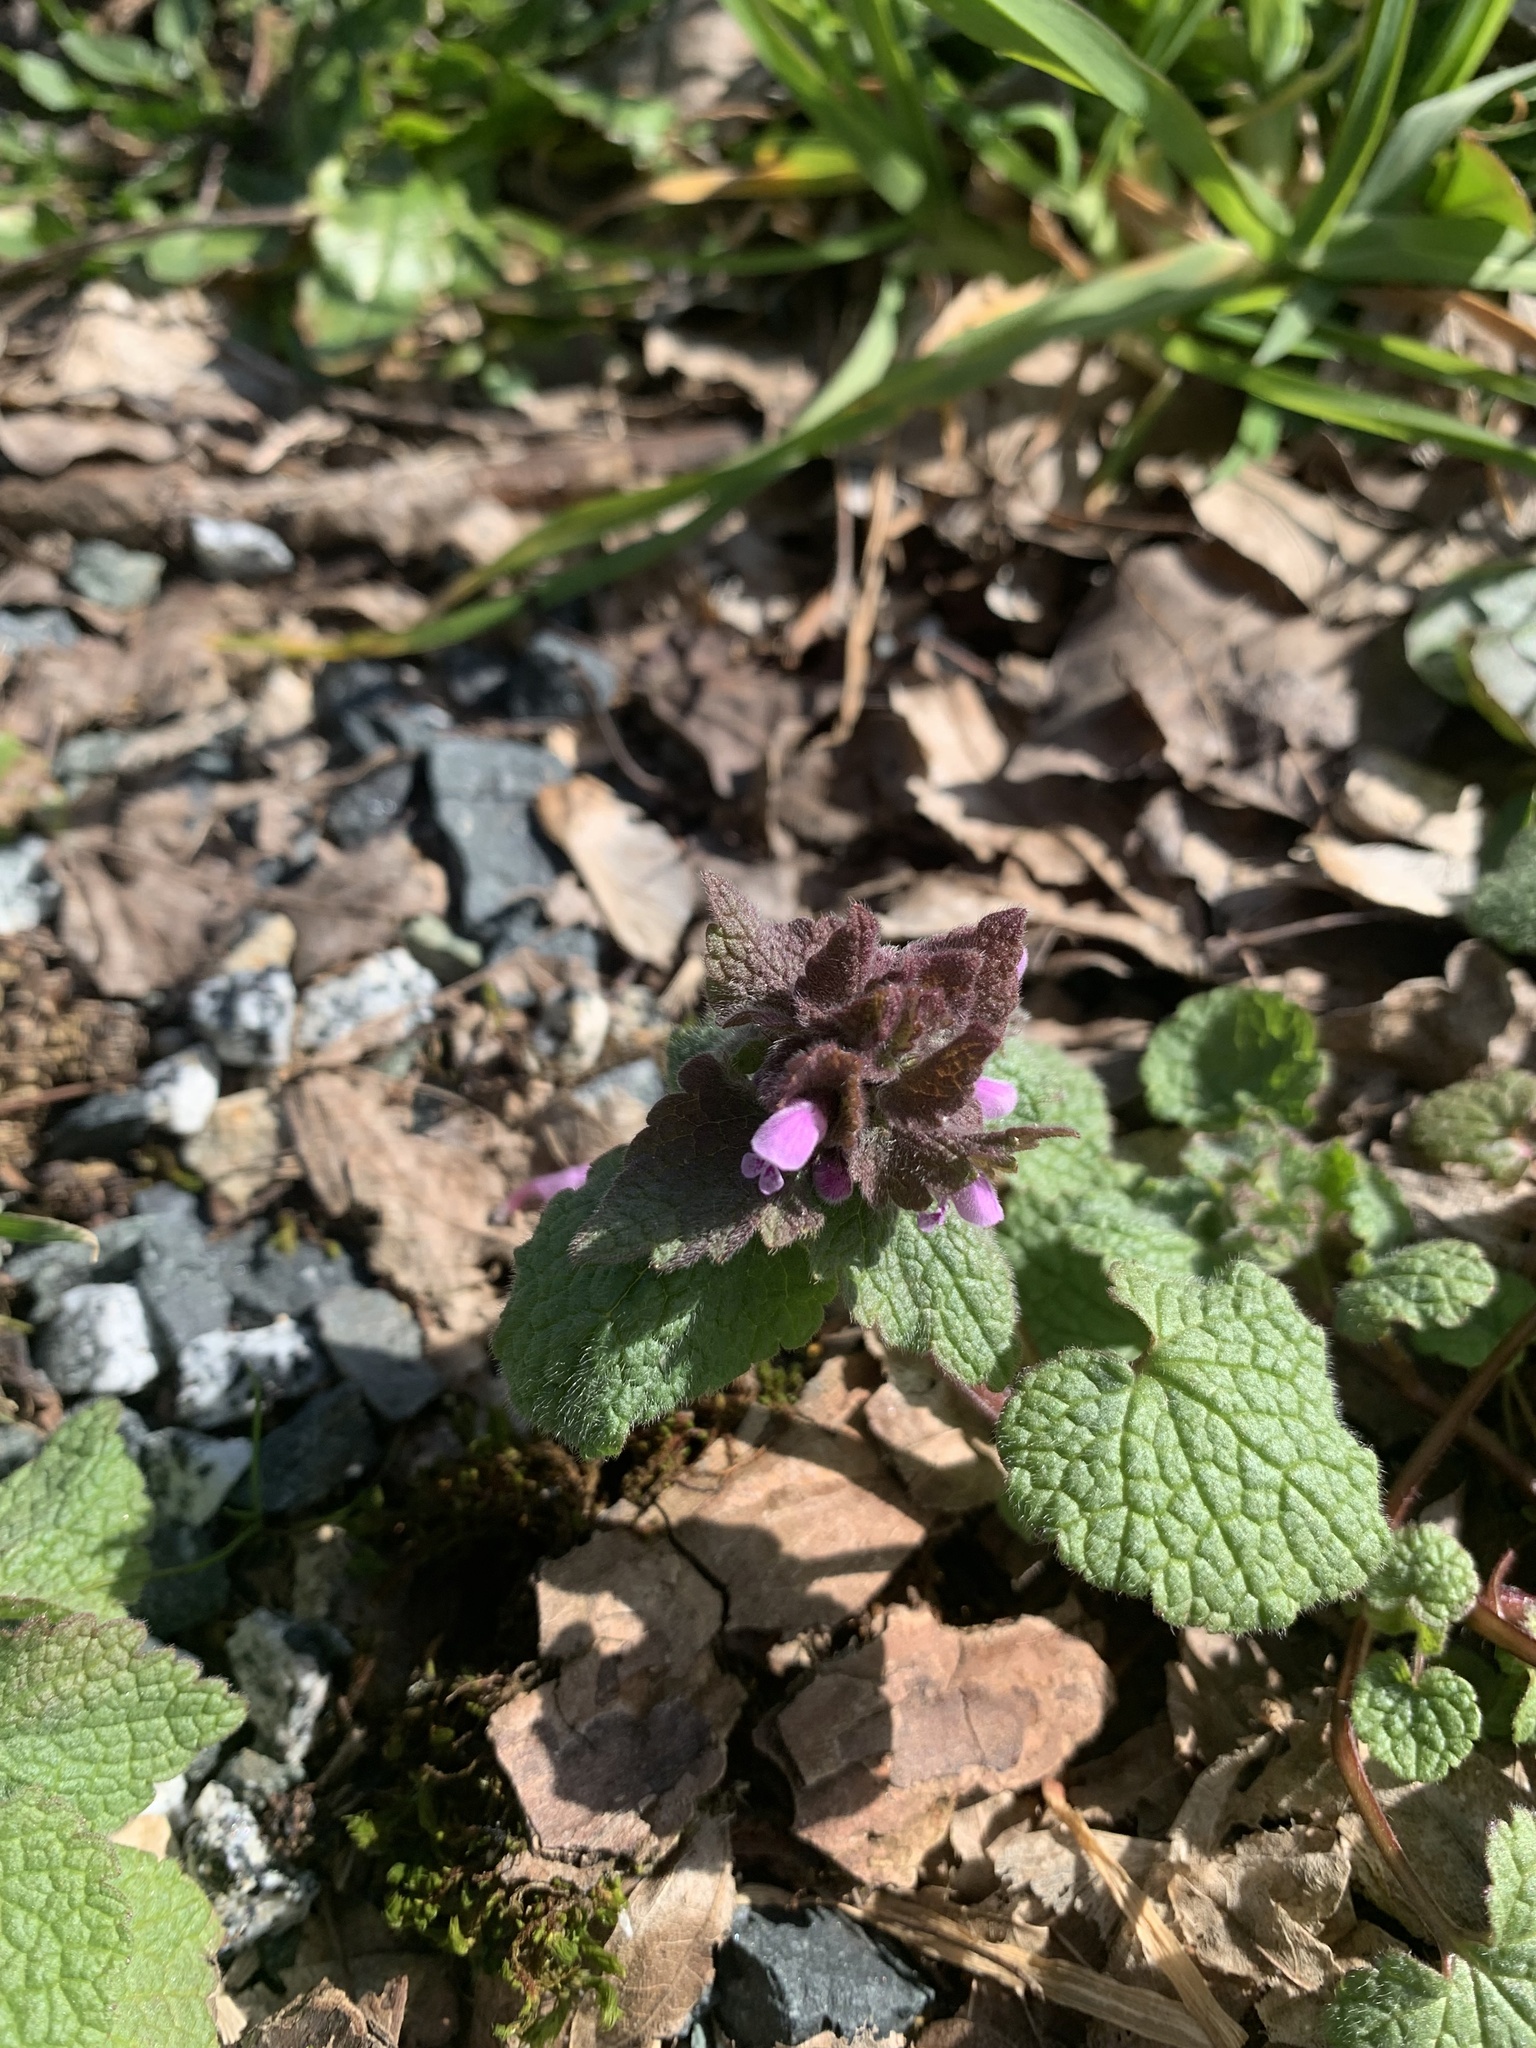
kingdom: Plantae
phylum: Tracheophyta
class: Magnoliopsida
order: Lamiales
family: Lamiaceae
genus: Lamium
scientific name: Lamium purpureum
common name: Red dead-nettle
